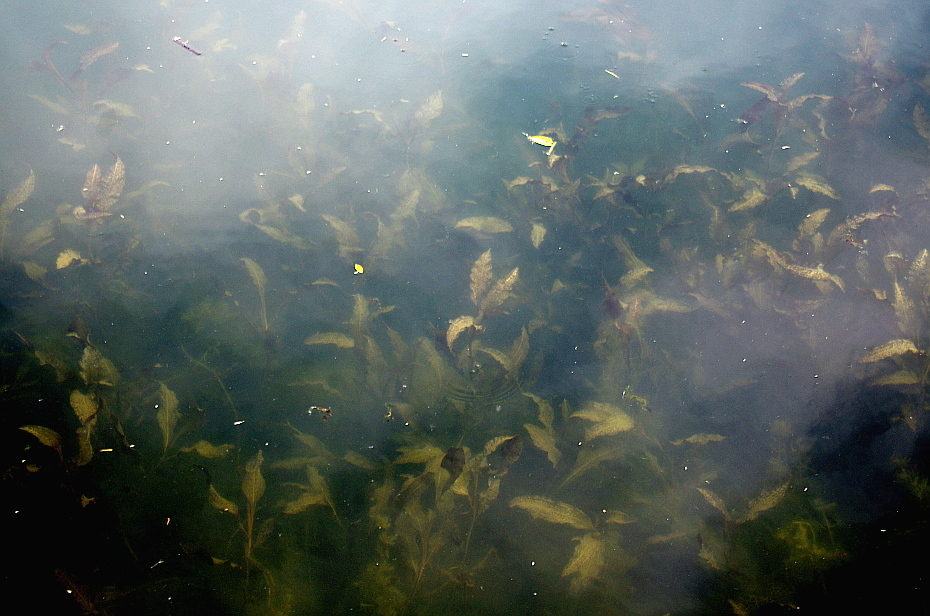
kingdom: Plantae
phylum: Tracheophyta
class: Liliopsida
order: Alismatales
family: Potamogetonaceae
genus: Potamogeton
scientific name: Potamogeton lucens
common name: Shining pondweed
